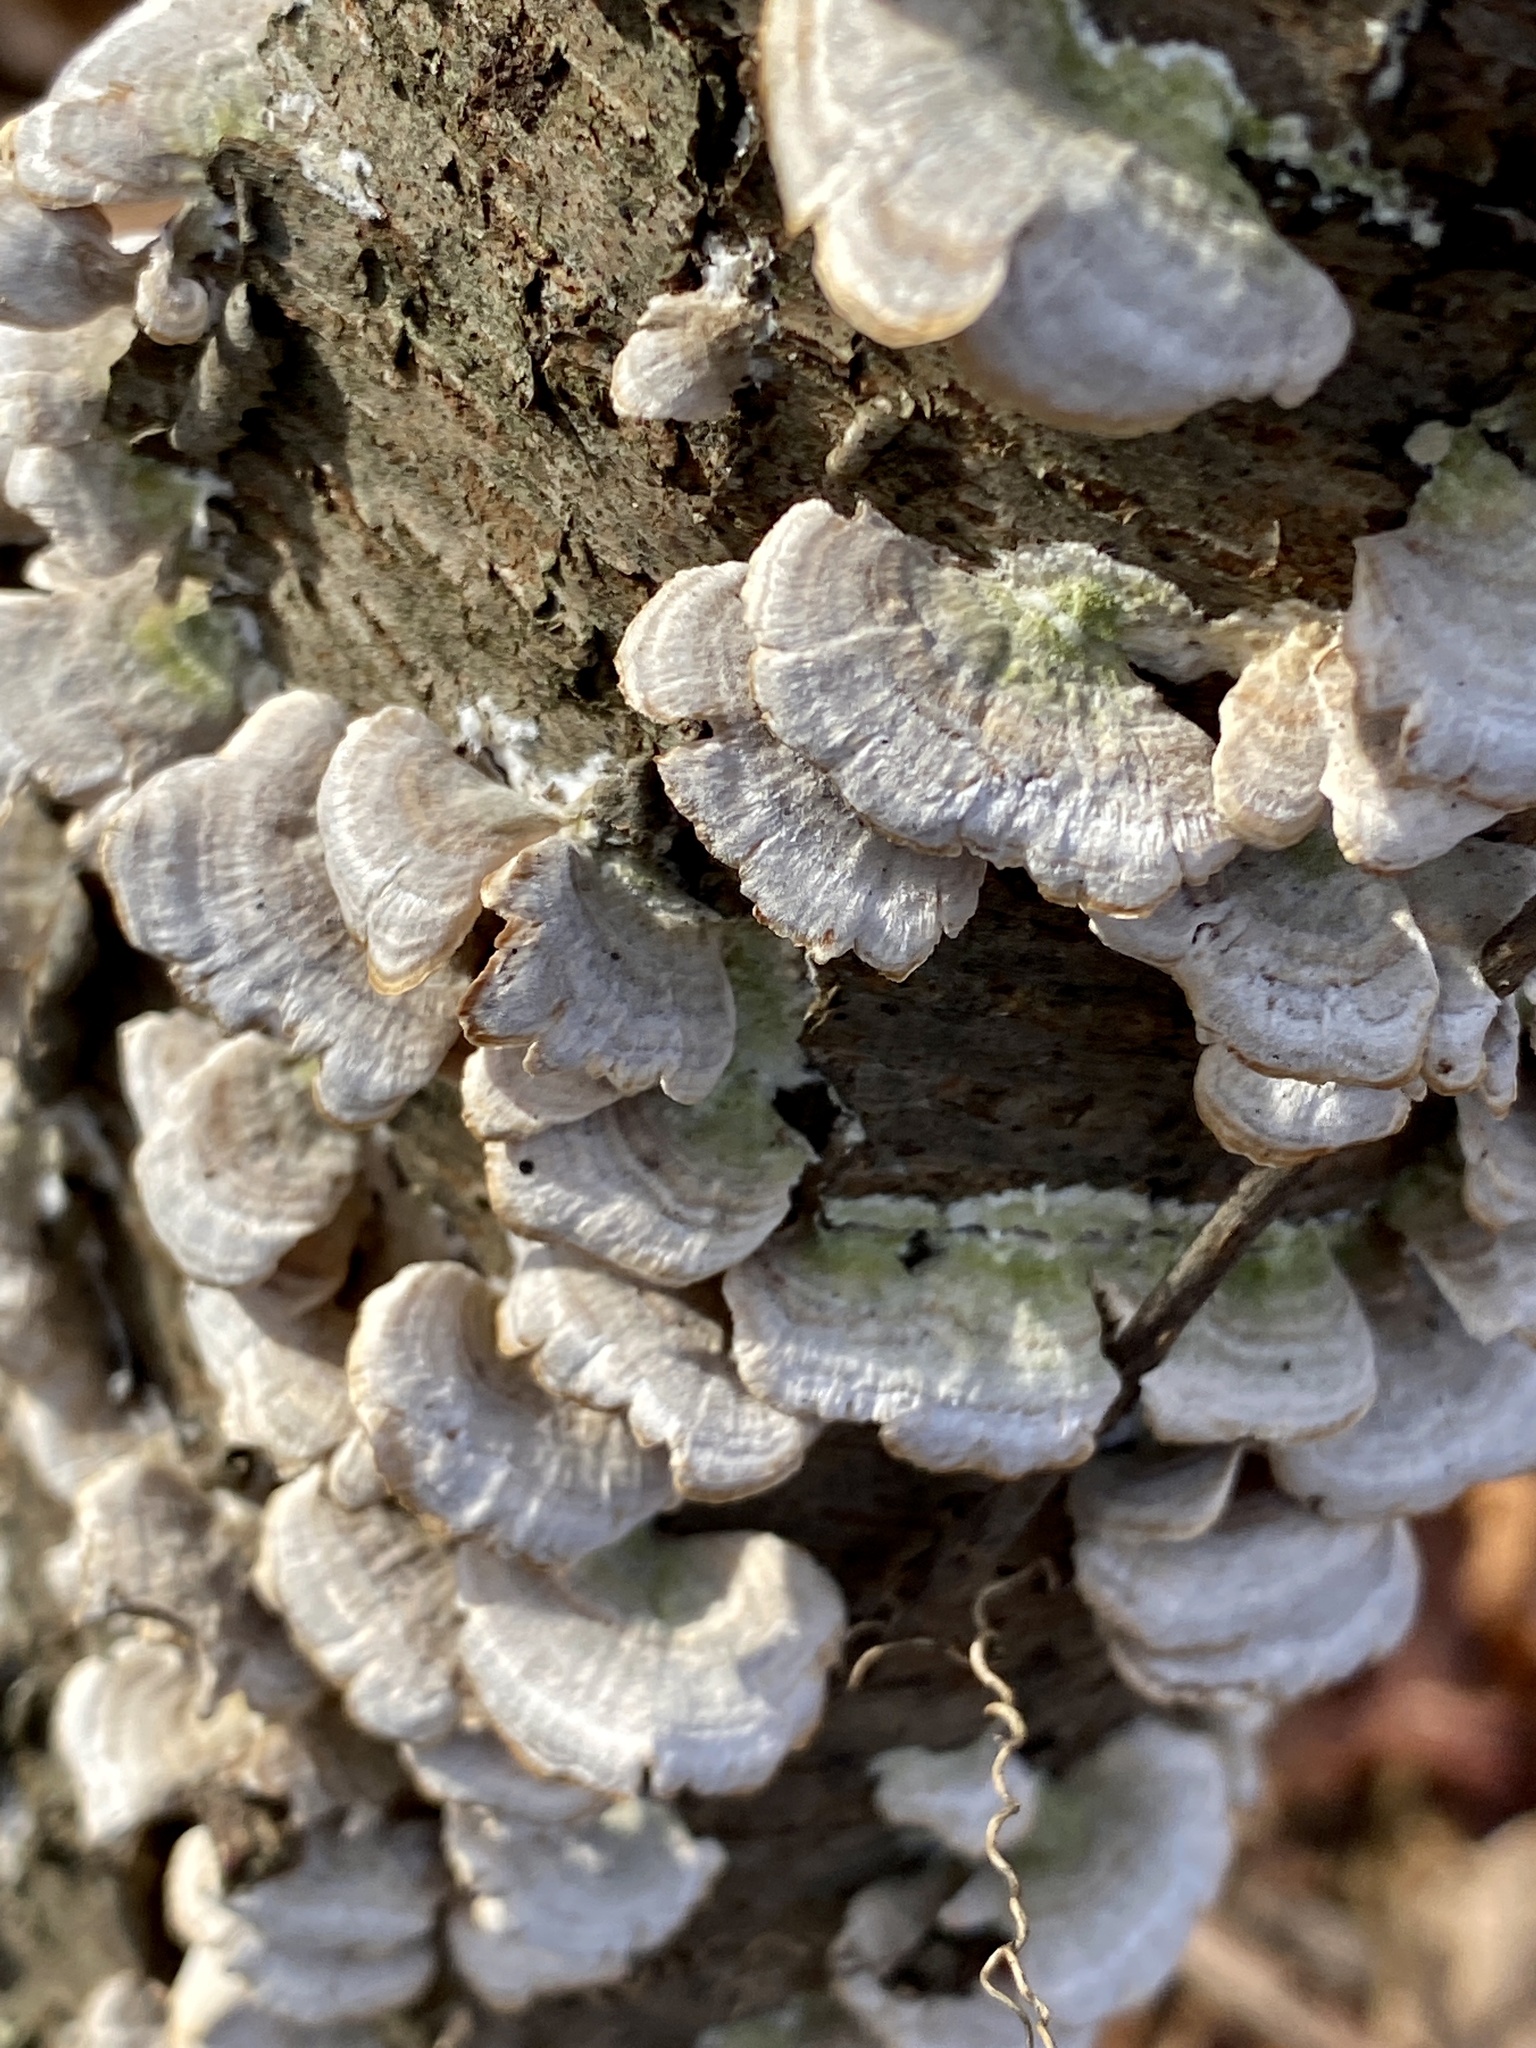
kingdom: Fungi
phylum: Basidiomycota
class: Agaricomycetes
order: Hymenochaetales
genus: Trichaptum
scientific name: Trichaptum biforme
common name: Violet-toothed polypore
